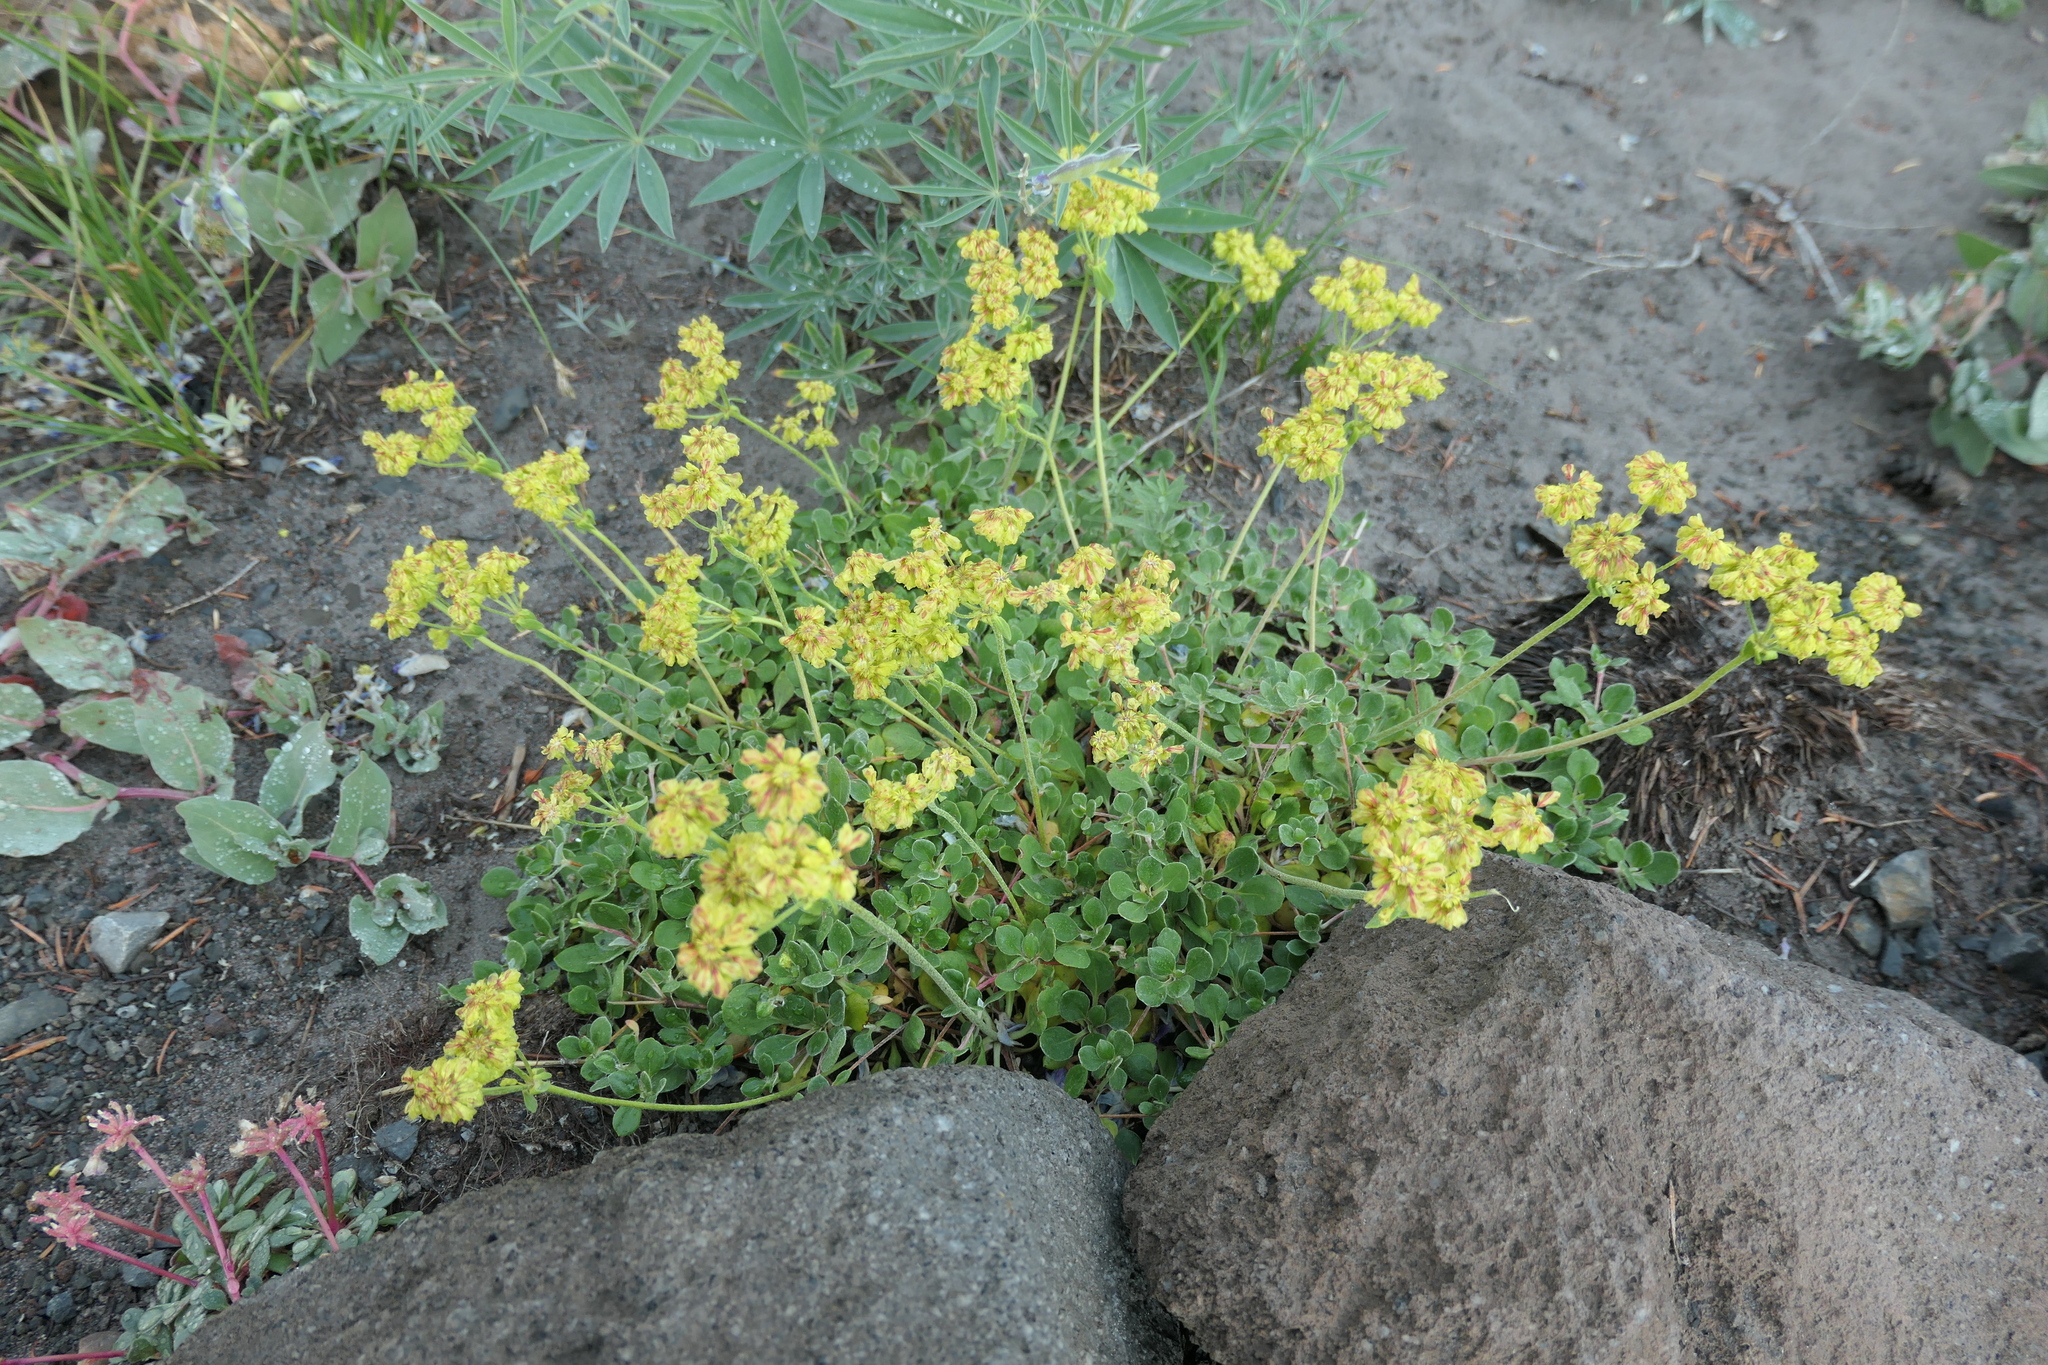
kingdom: Plantae
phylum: Tracheophyta
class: Magnoliopsida
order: Caryophyllales
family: Polygonaceae
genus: Eriogonum
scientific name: Eriogonum umbellatum
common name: Sulfur-buckwheat
